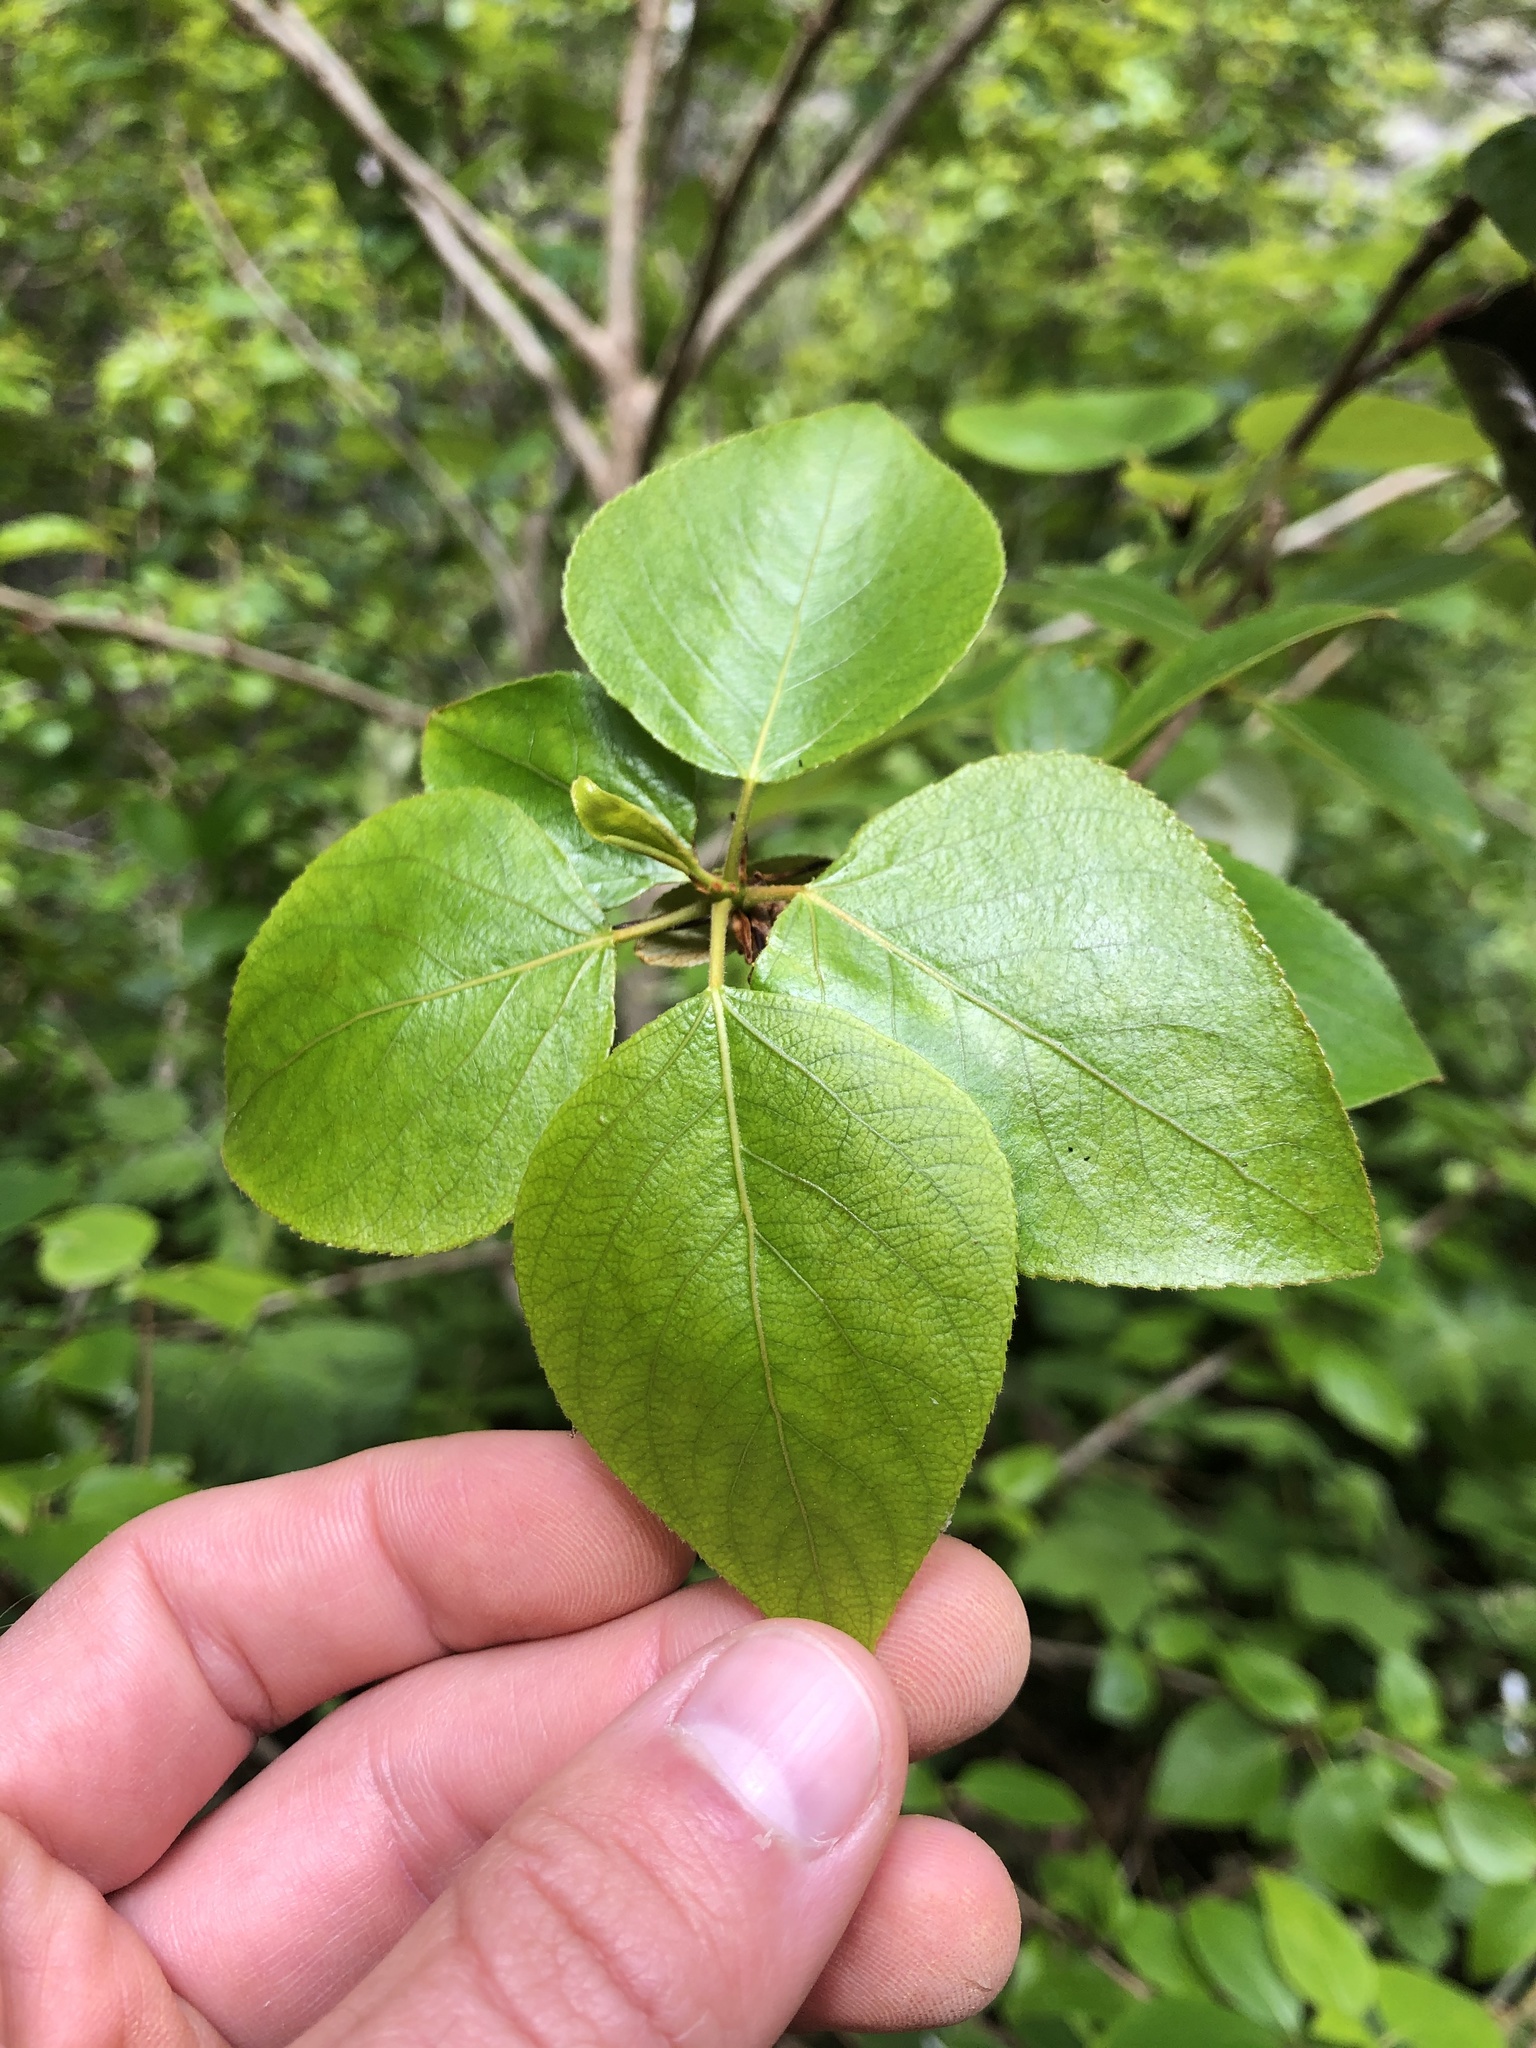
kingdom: Plantae
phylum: Tracheophyta
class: Magnoliopsida
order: Malpighiales
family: Salicaceae
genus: Populus
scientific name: Populus trichocarpa
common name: Black cottonwood
